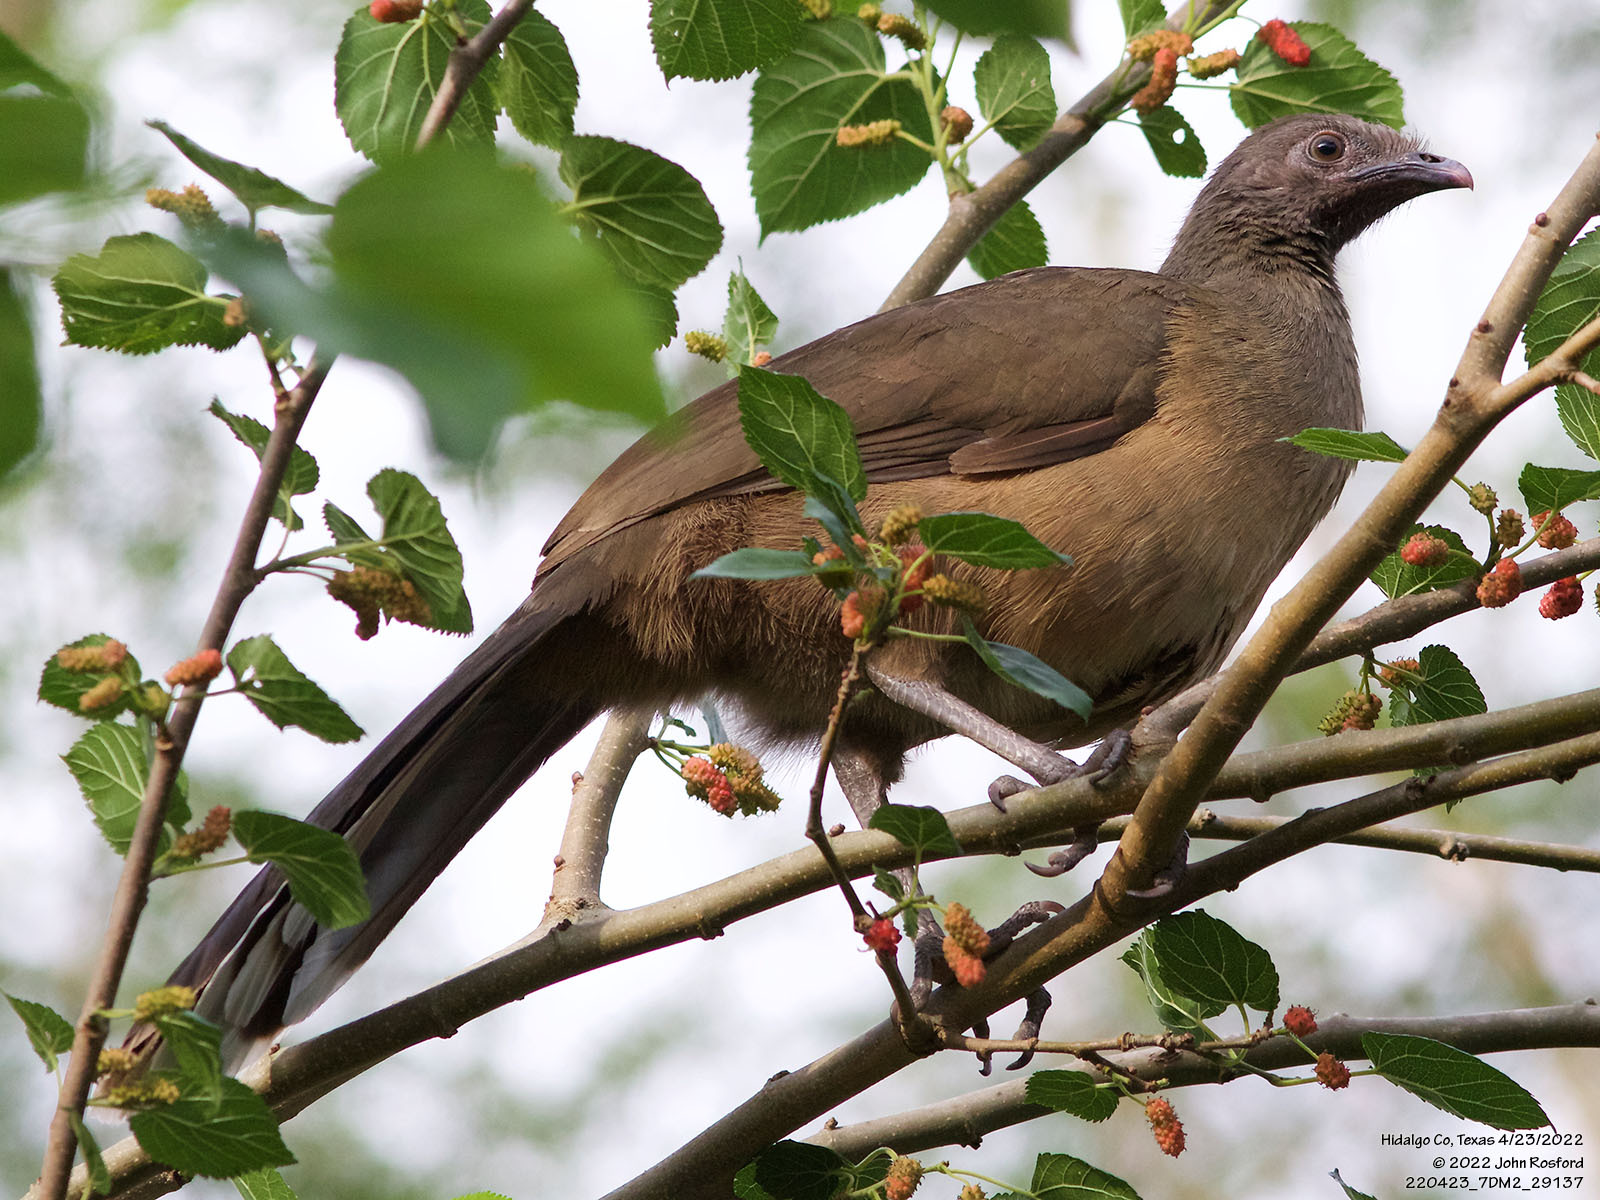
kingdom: Animalia
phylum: Chordata
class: Aves
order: Galliformes
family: Cracidae
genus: Ortalis
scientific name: Ortalis vetula
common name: Plain chachalaca
